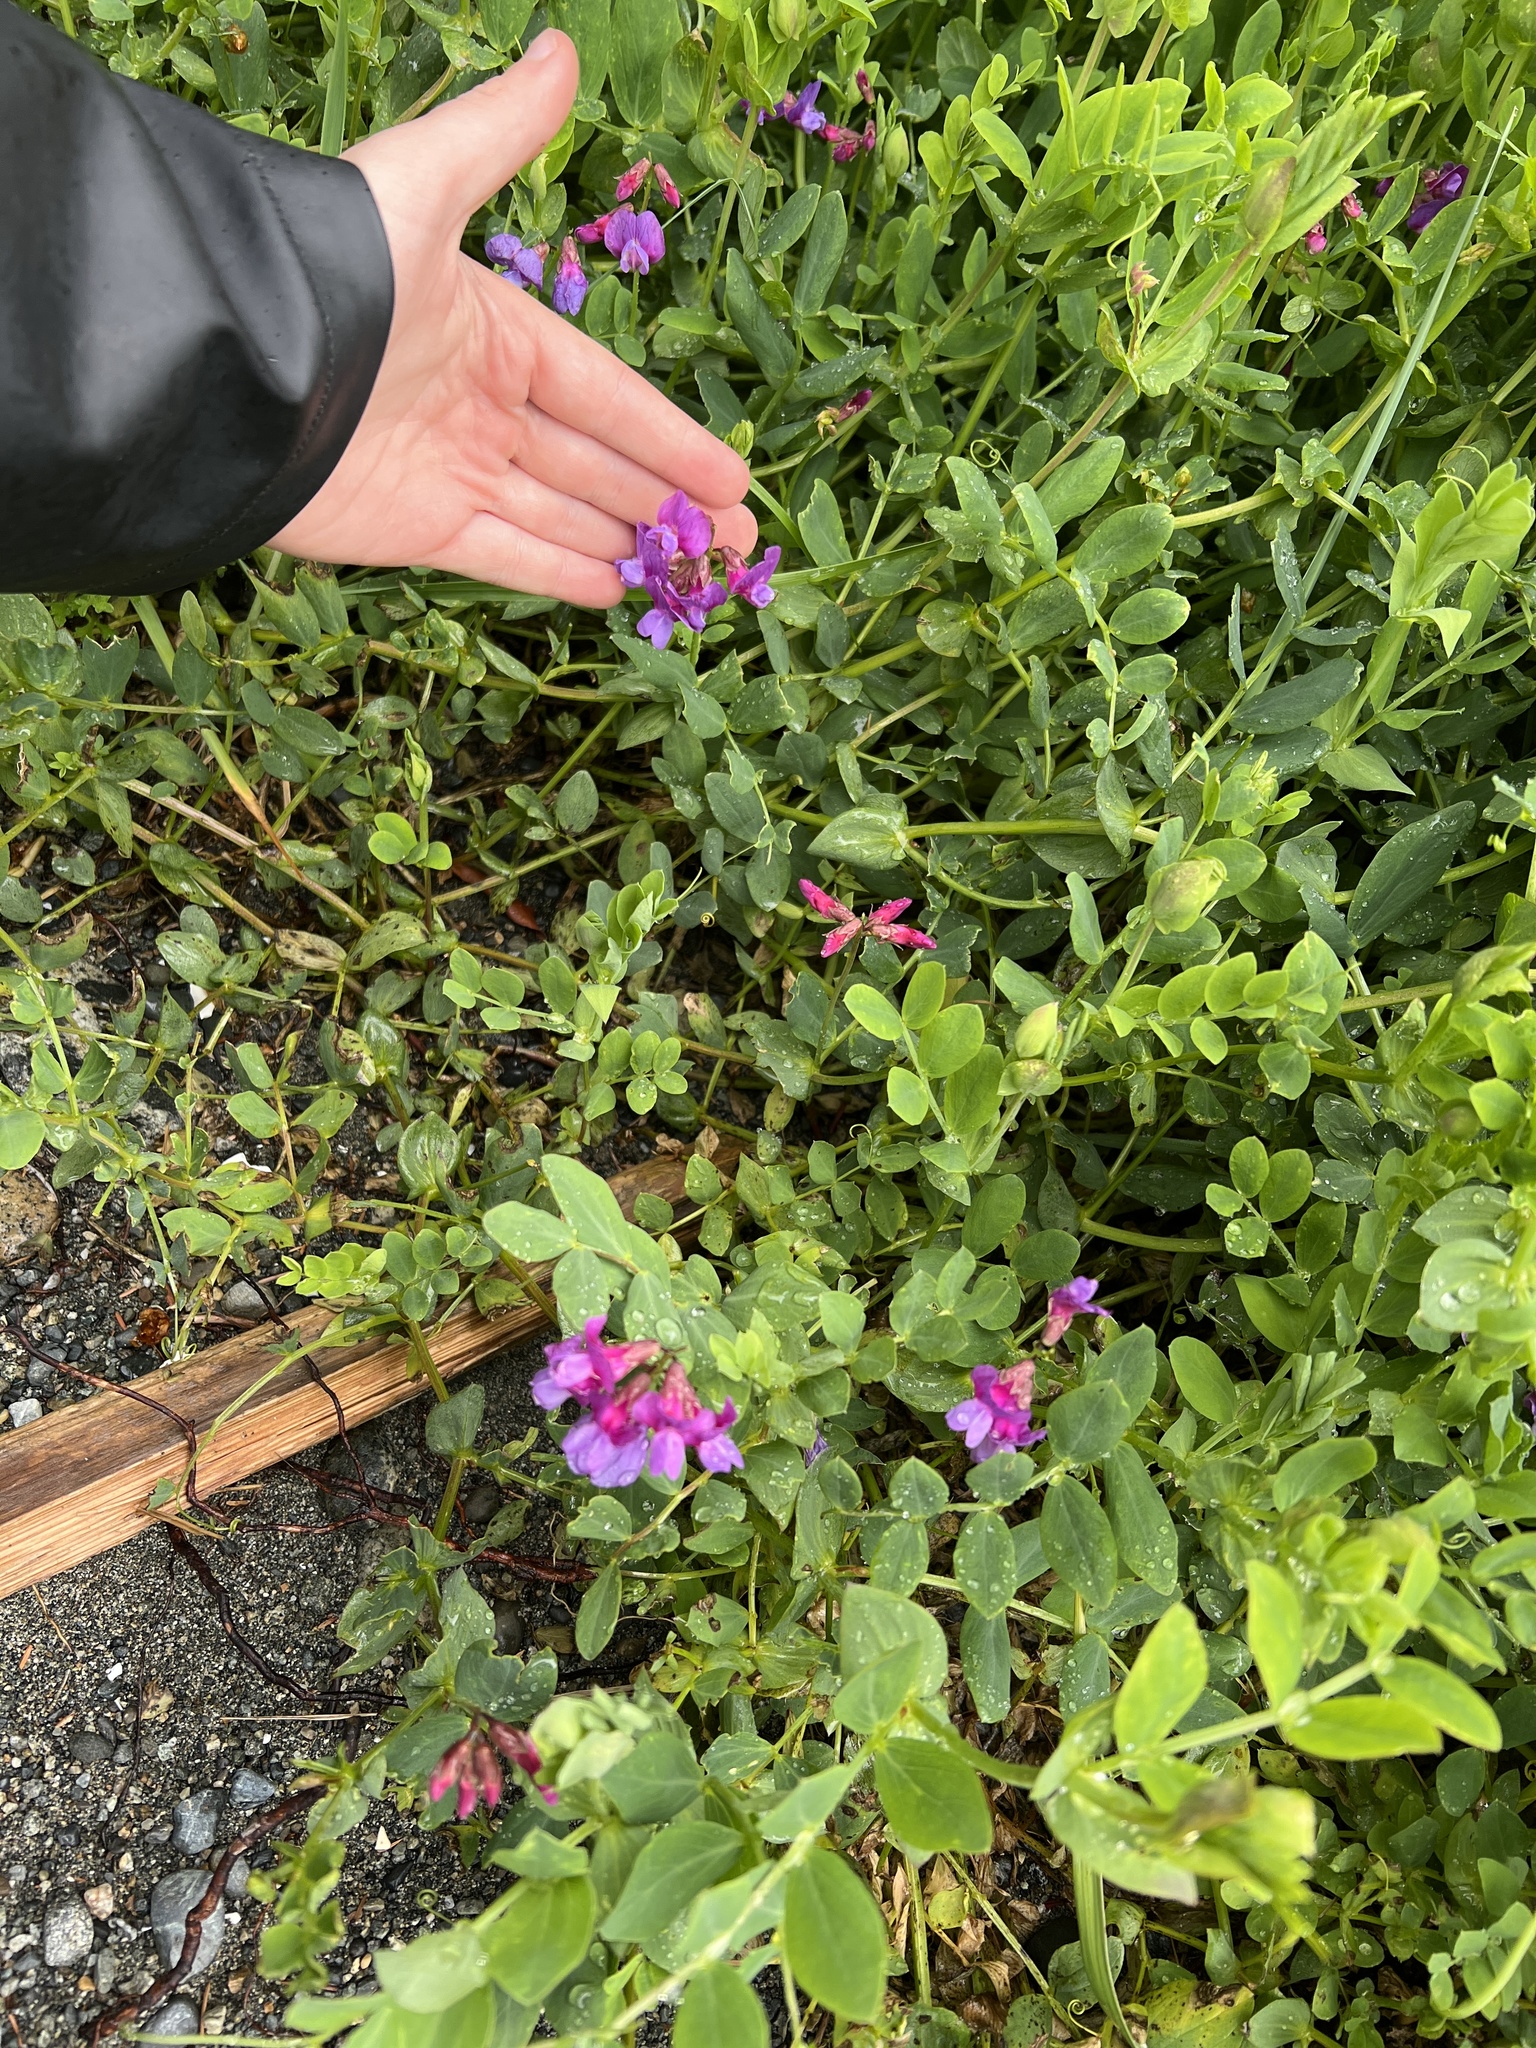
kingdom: Plantae
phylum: Tracheophyta
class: Magnoliopsida
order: Fabales
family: Fabaceae
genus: Lathyrus
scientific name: Lathyrus japonicus
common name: Sea pea
